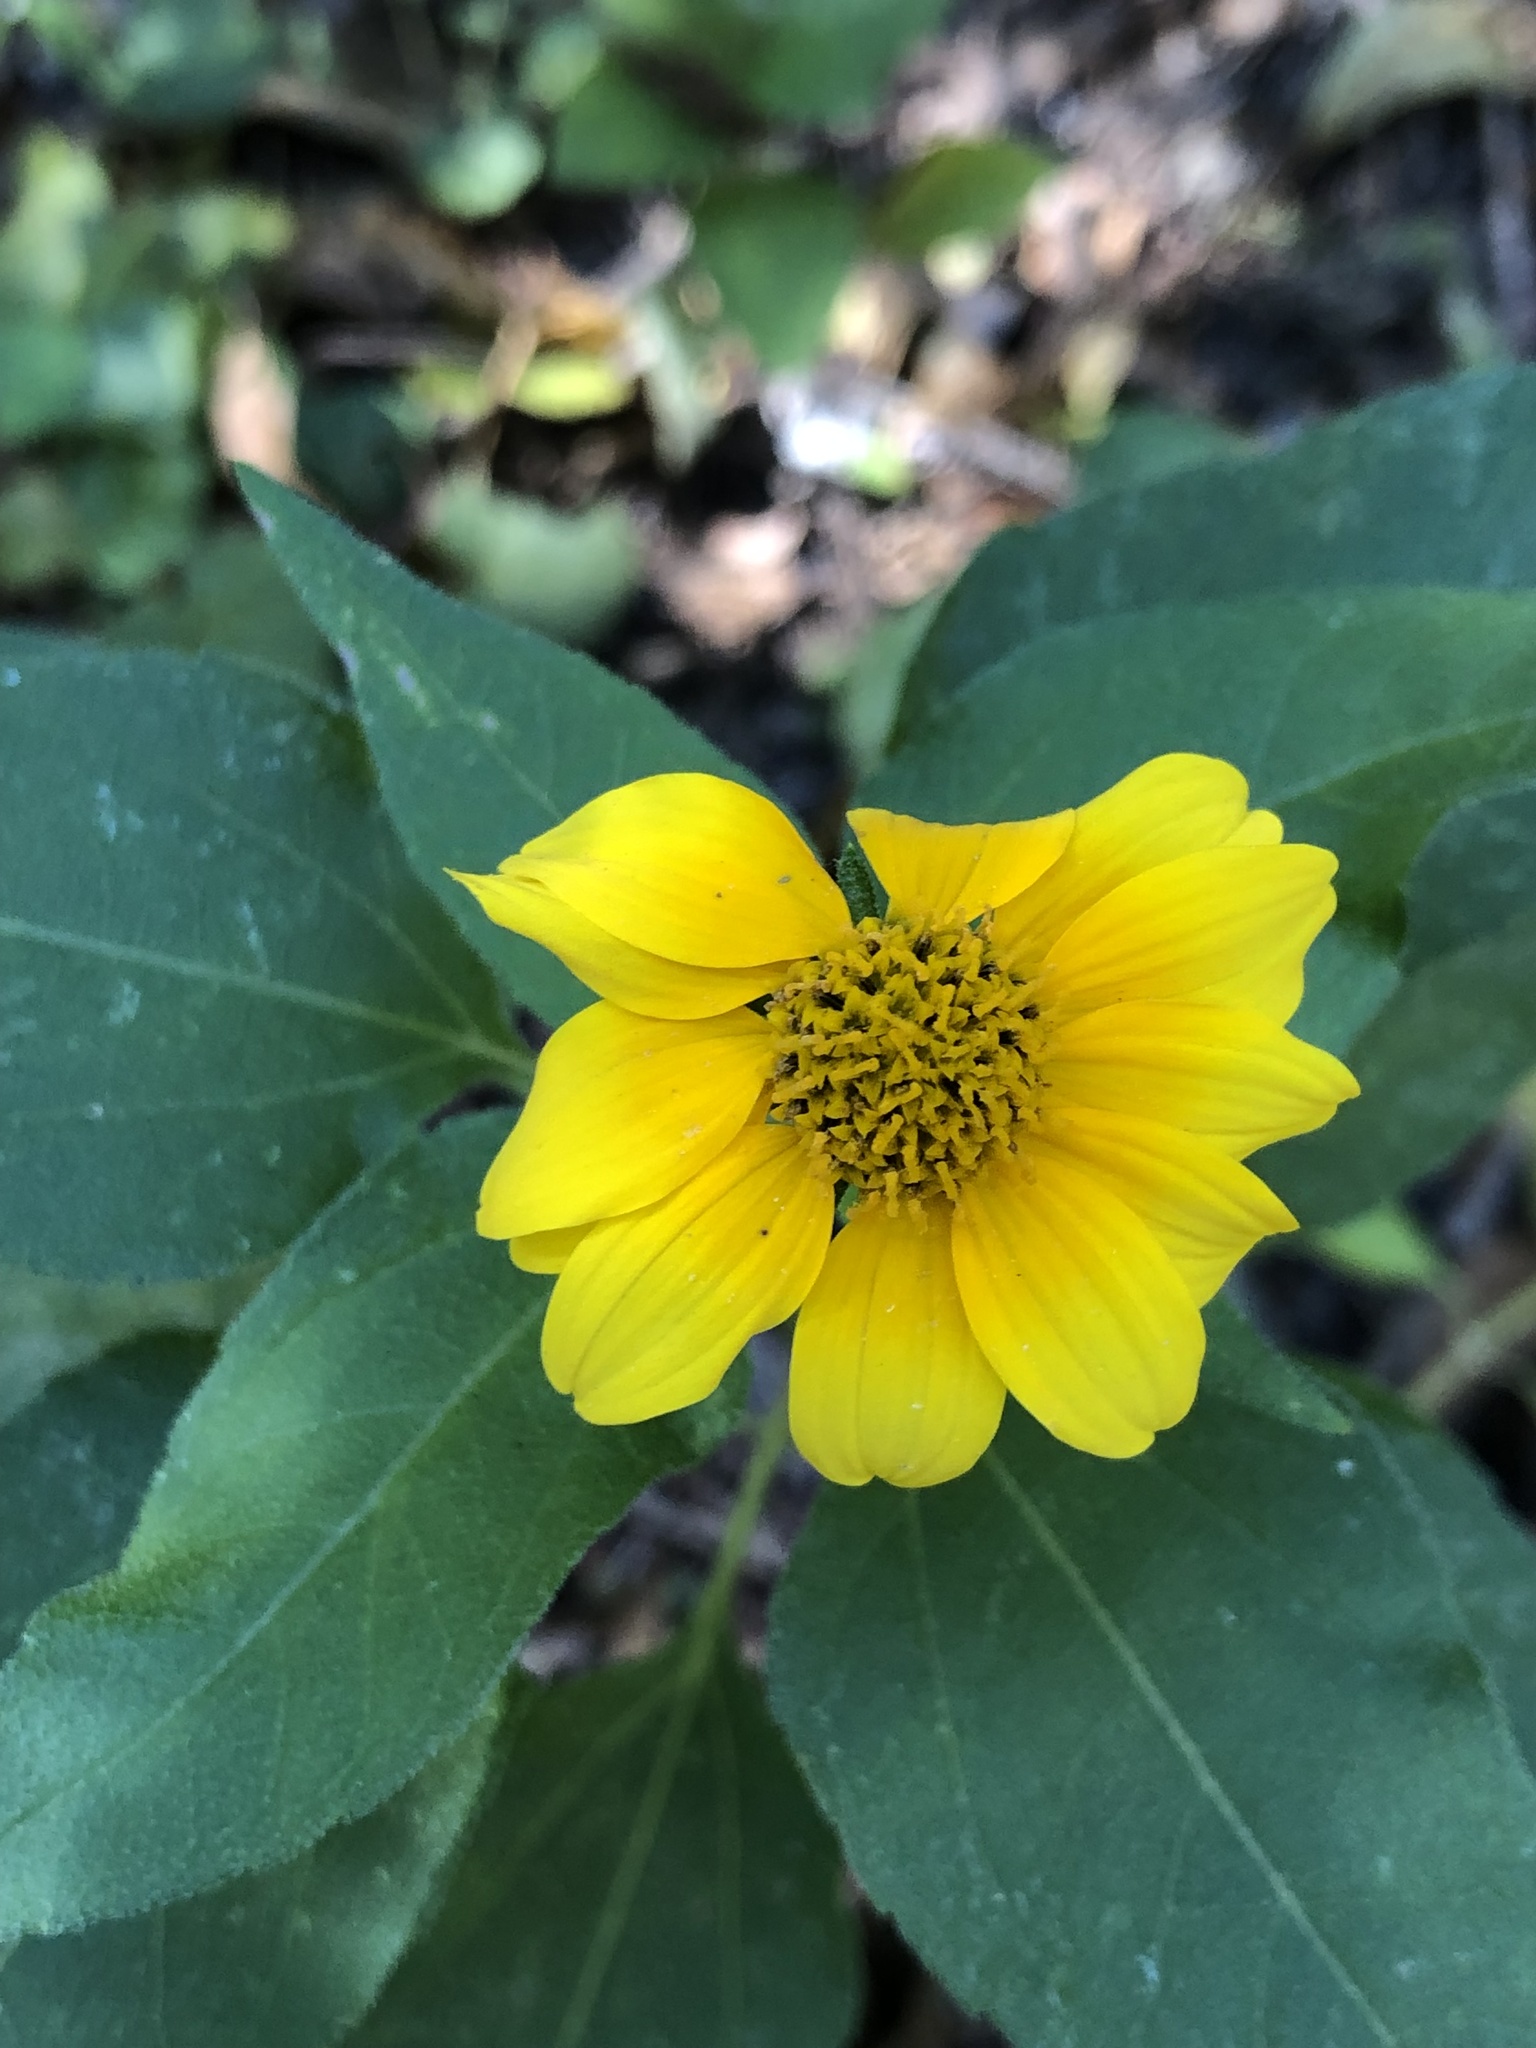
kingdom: Plantae
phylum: Tracheophyta
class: Magnoliopsida
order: Asterales
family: Asteraceae
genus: Viguiera
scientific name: Viguiera dentata
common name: Toothleaf
